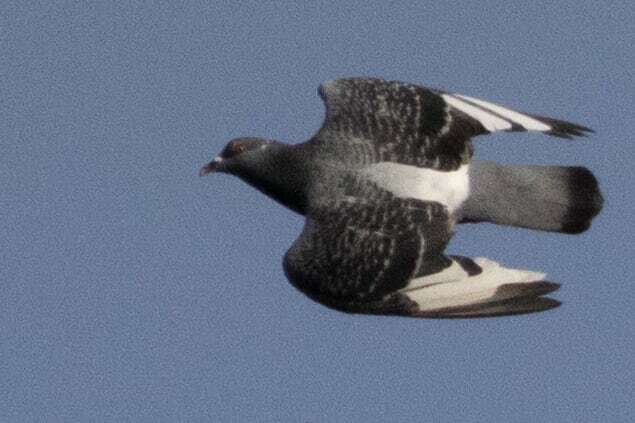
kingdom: Animalia
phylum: Chordata
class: Aves
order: Columbiformes
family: Columbidae
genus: Columba
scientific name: Columba livia
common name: Rock pigeon
